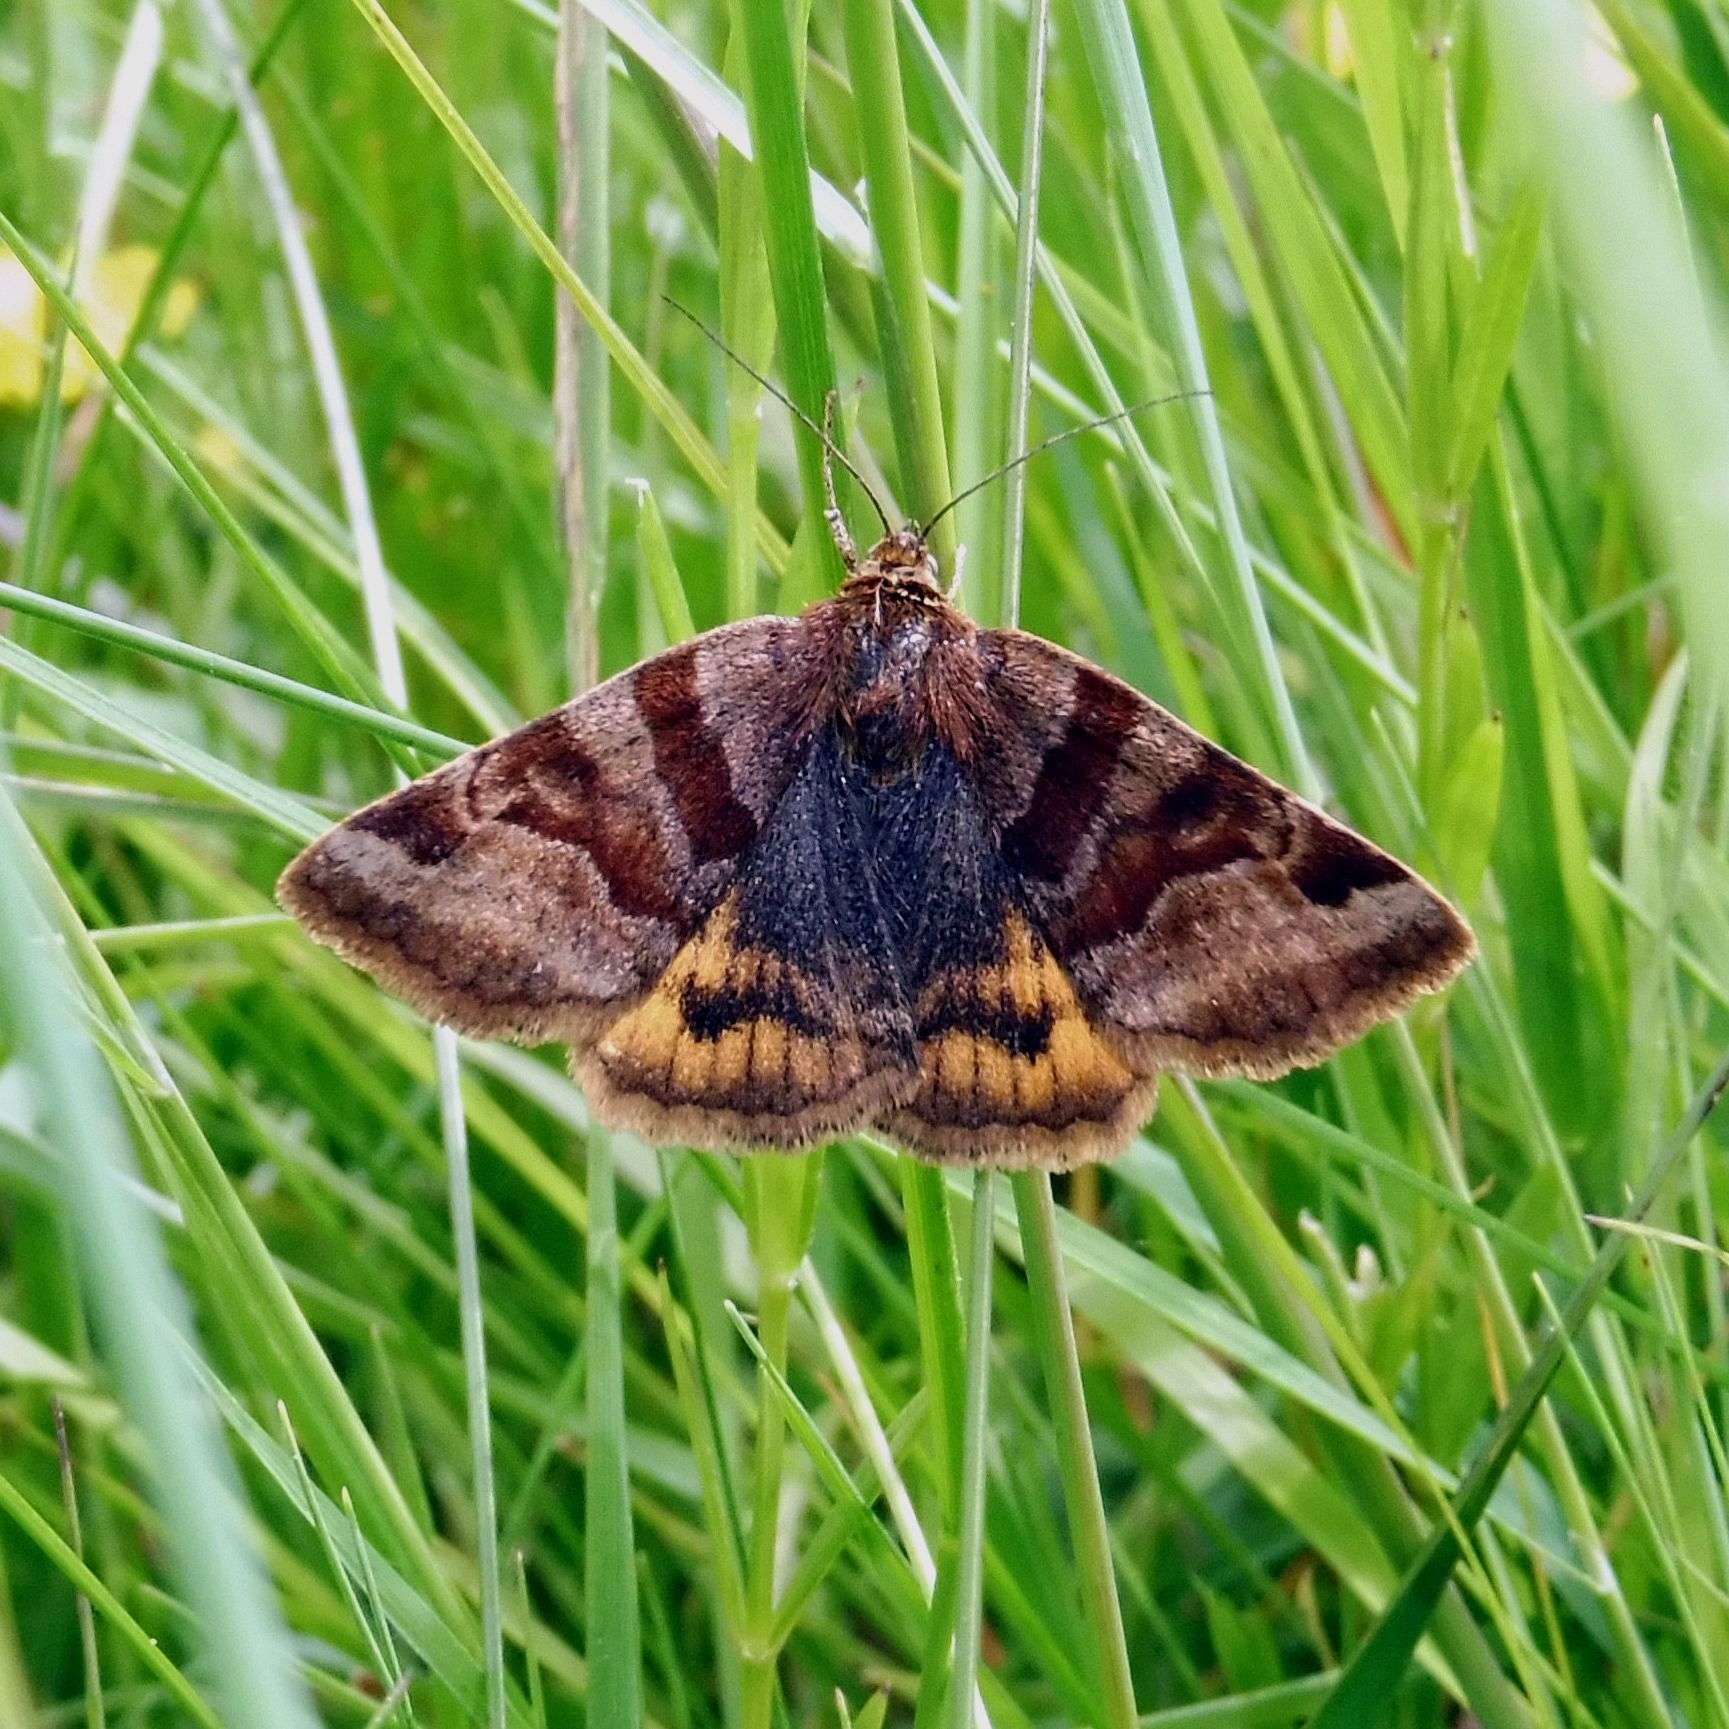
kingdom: Animalia
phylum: Arthropoda
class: Insecta
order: Lepidoptera
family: Erebidae
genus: Euclidia
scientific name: Euclidia glyphica
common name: Burnet companion
